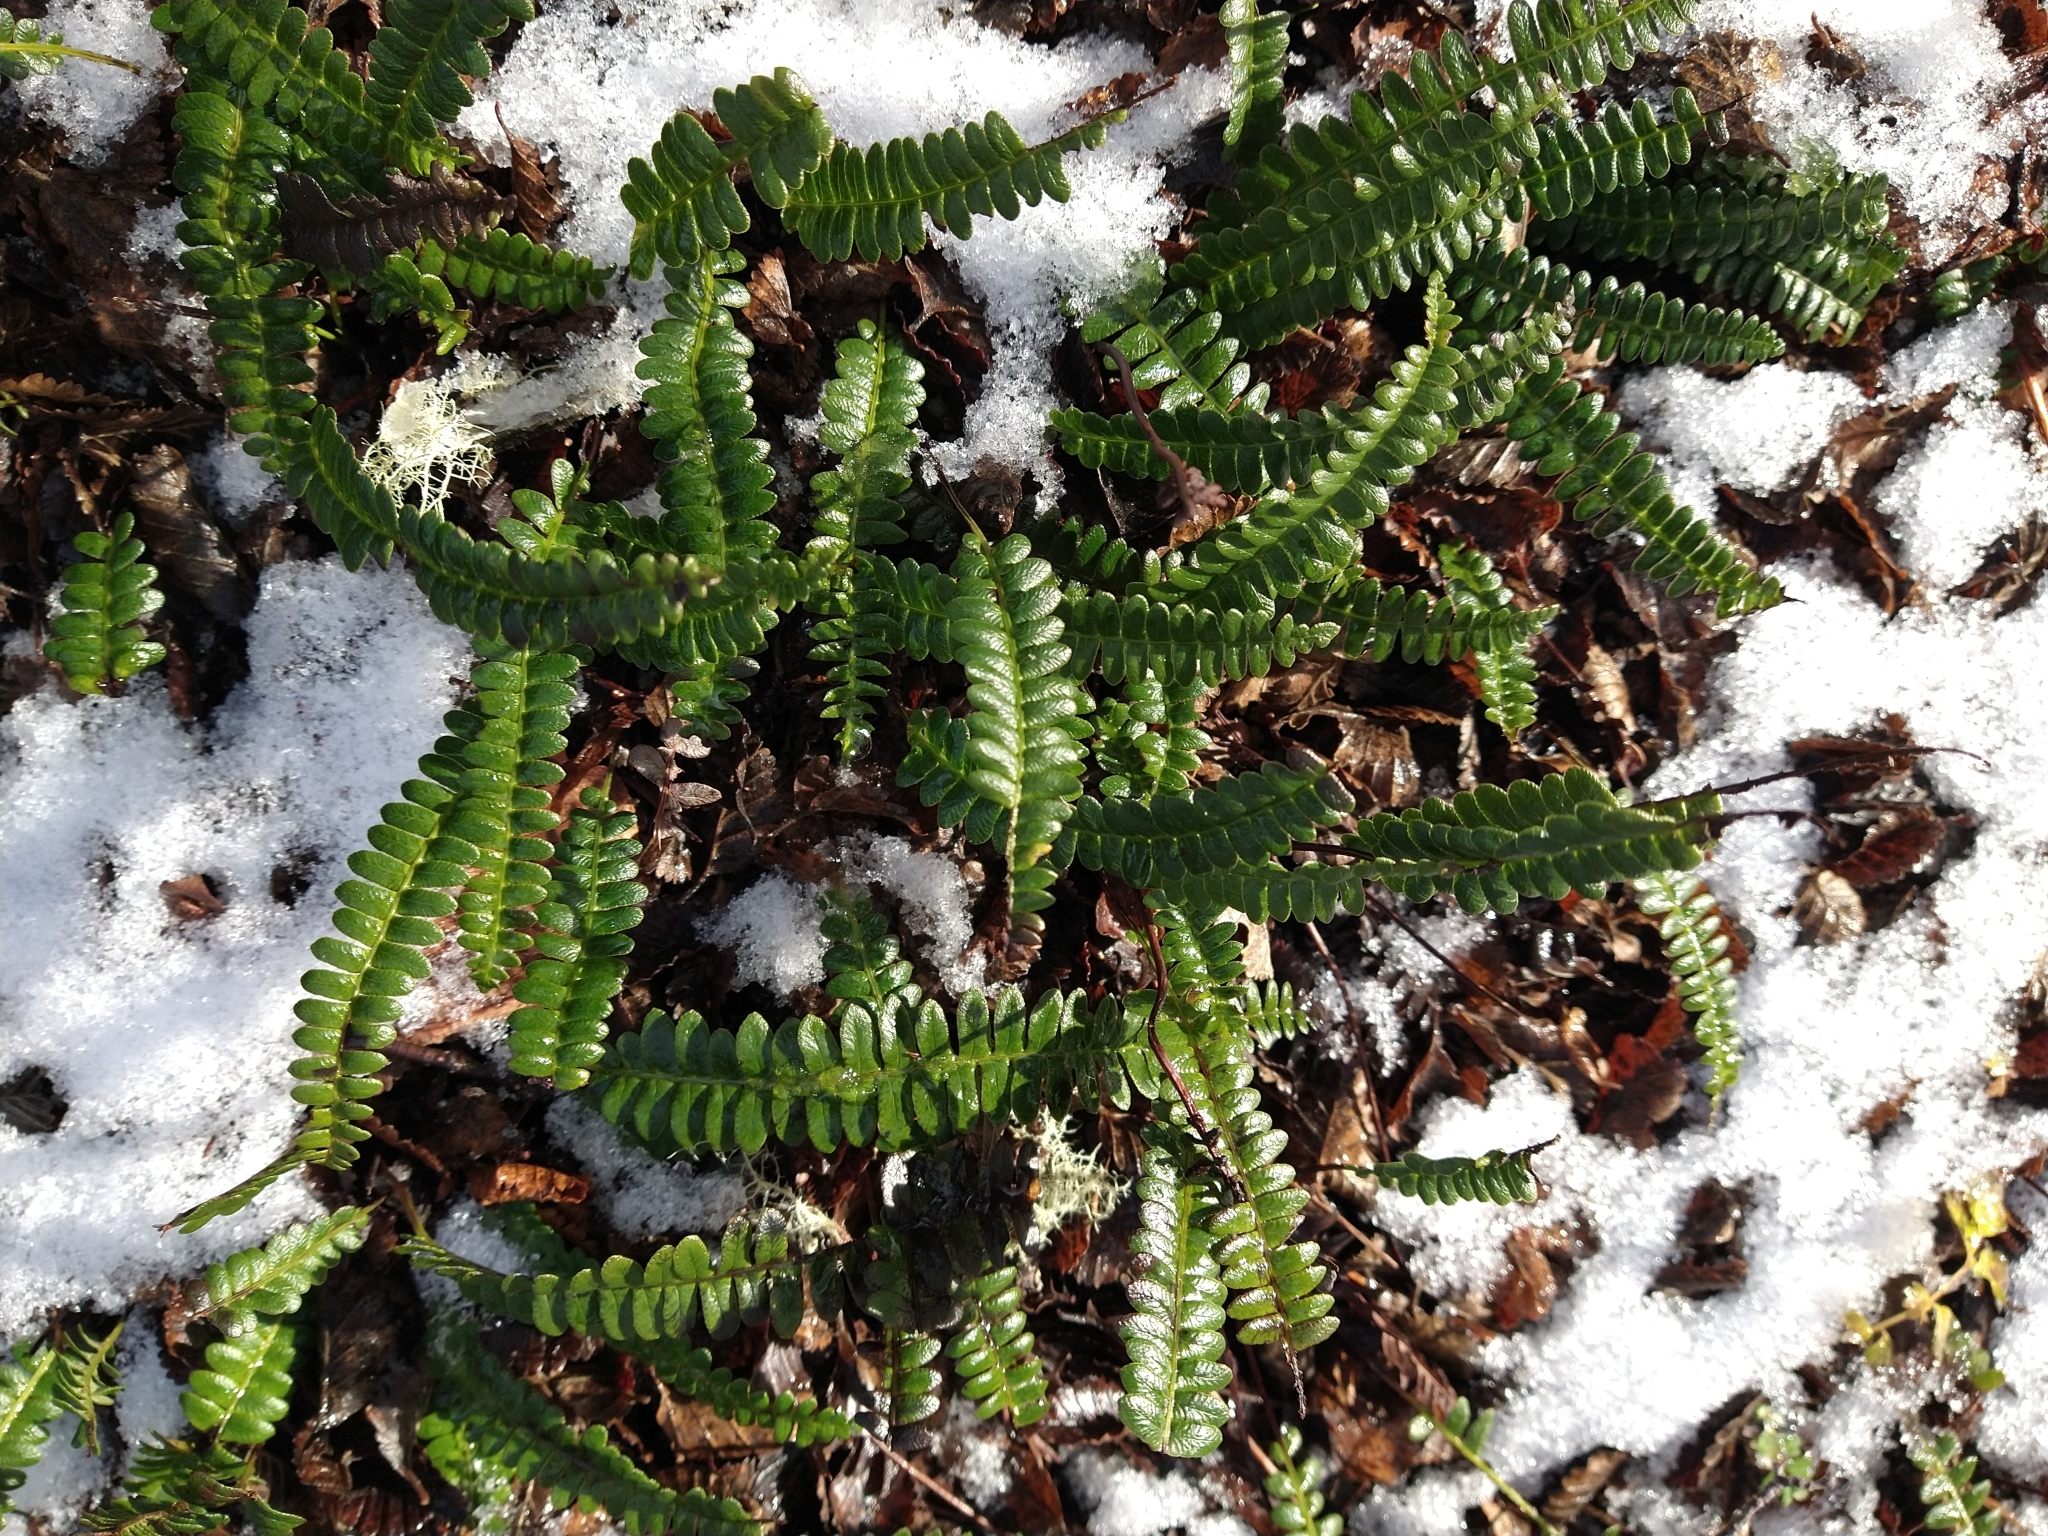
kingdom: Plantae
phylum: Tracheophyta
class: Polypodiopsida
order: Polypodiales
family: Blechnaceae
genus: Austroblechnum
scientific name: Austroblechnum penna-marina
